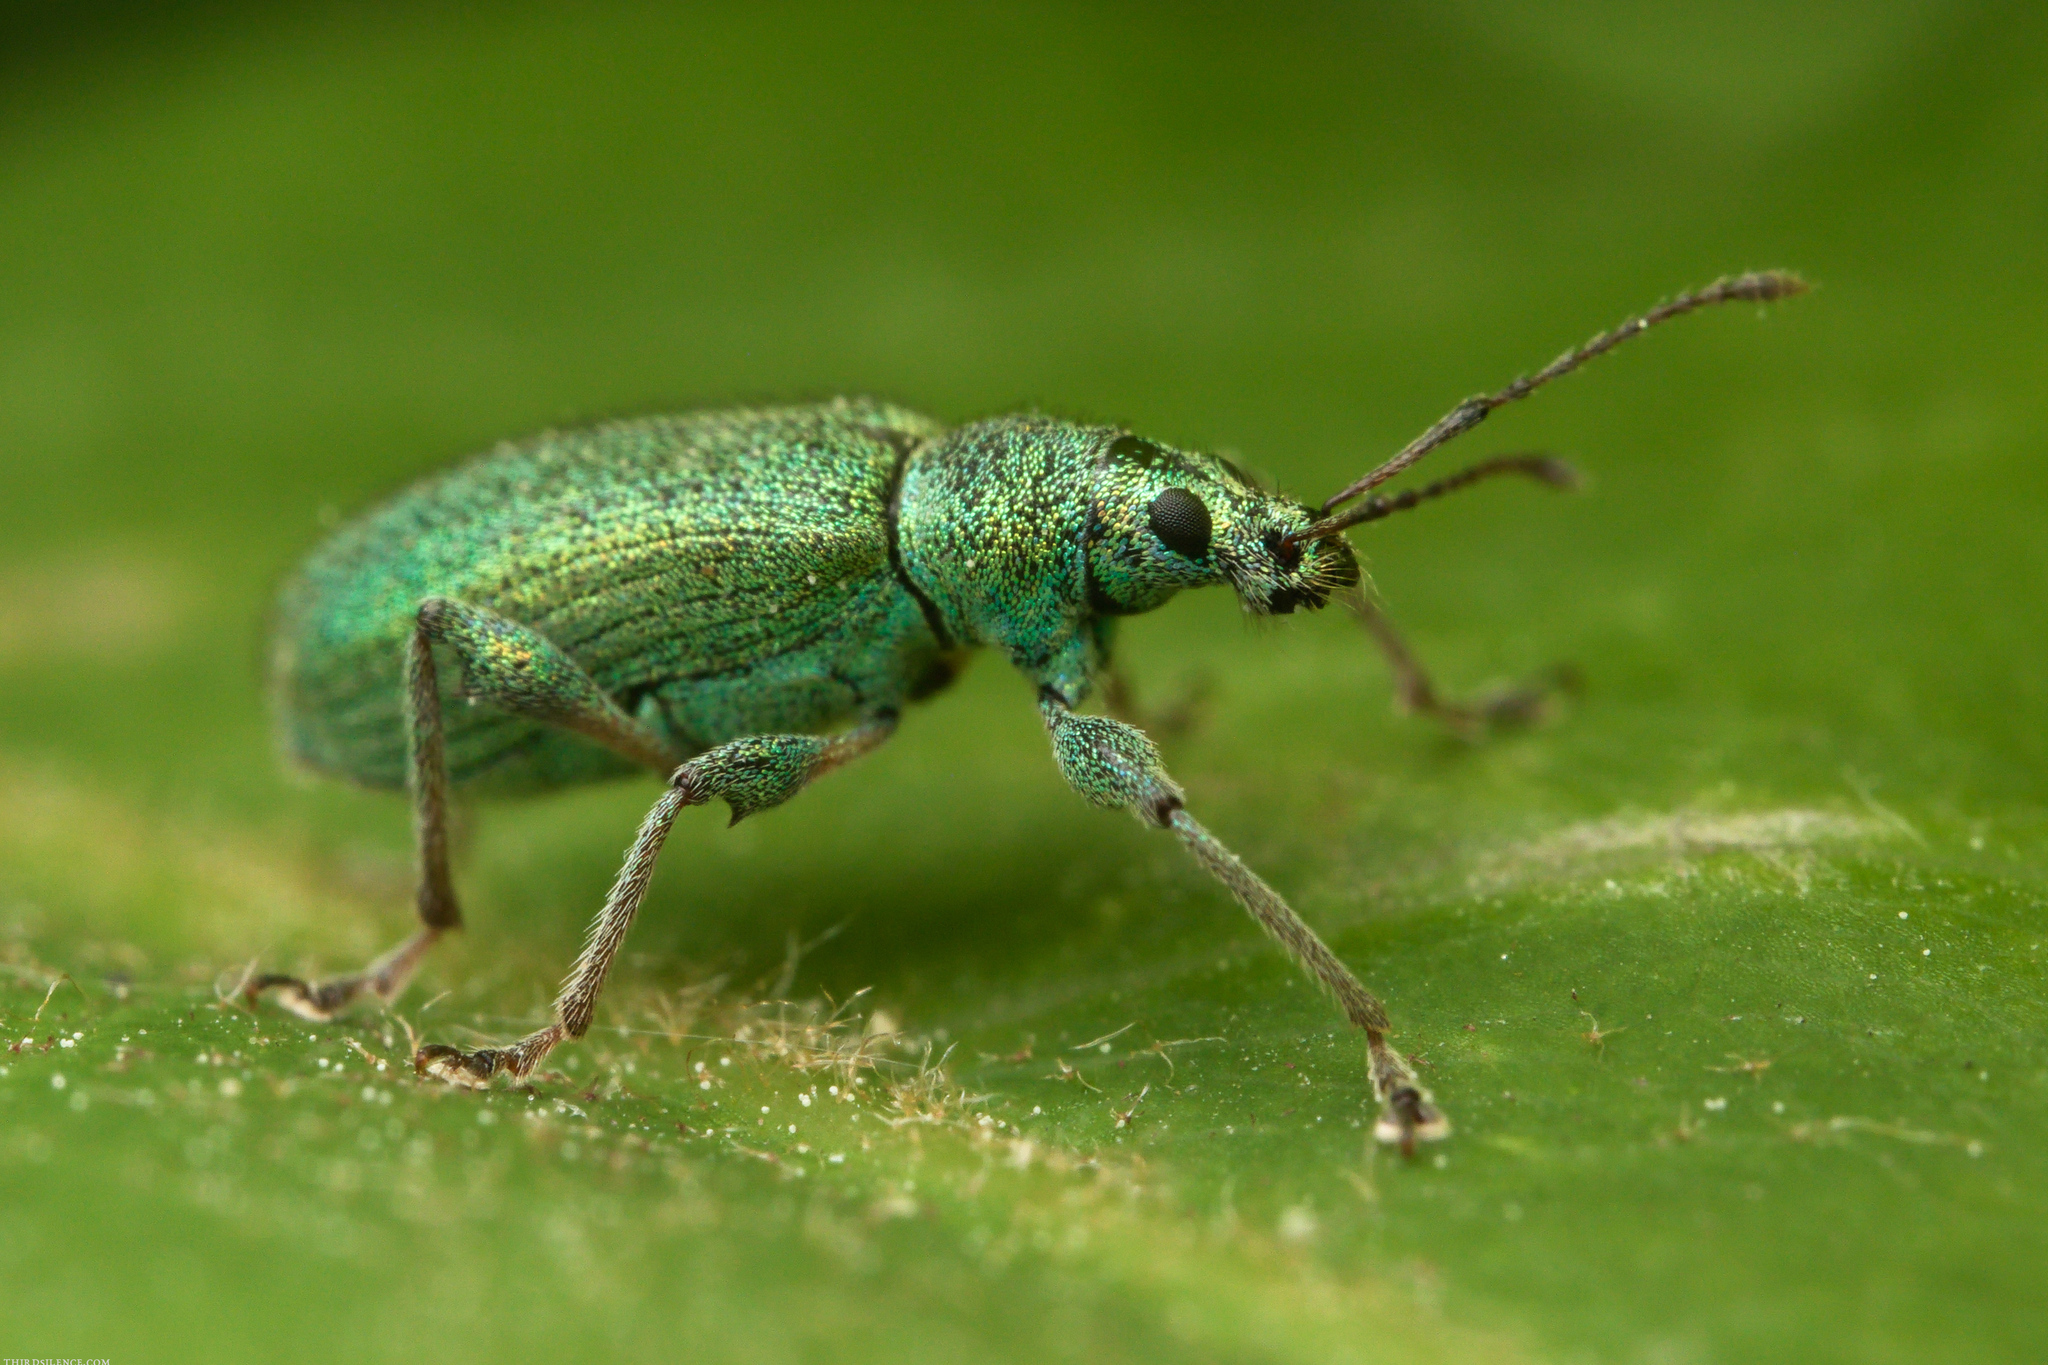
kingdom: Animalia
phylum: Arthropoda
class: Insecta
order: Coleoptera
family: Curculionidae
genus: Phyllobius
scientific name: Phyllobius arborator
